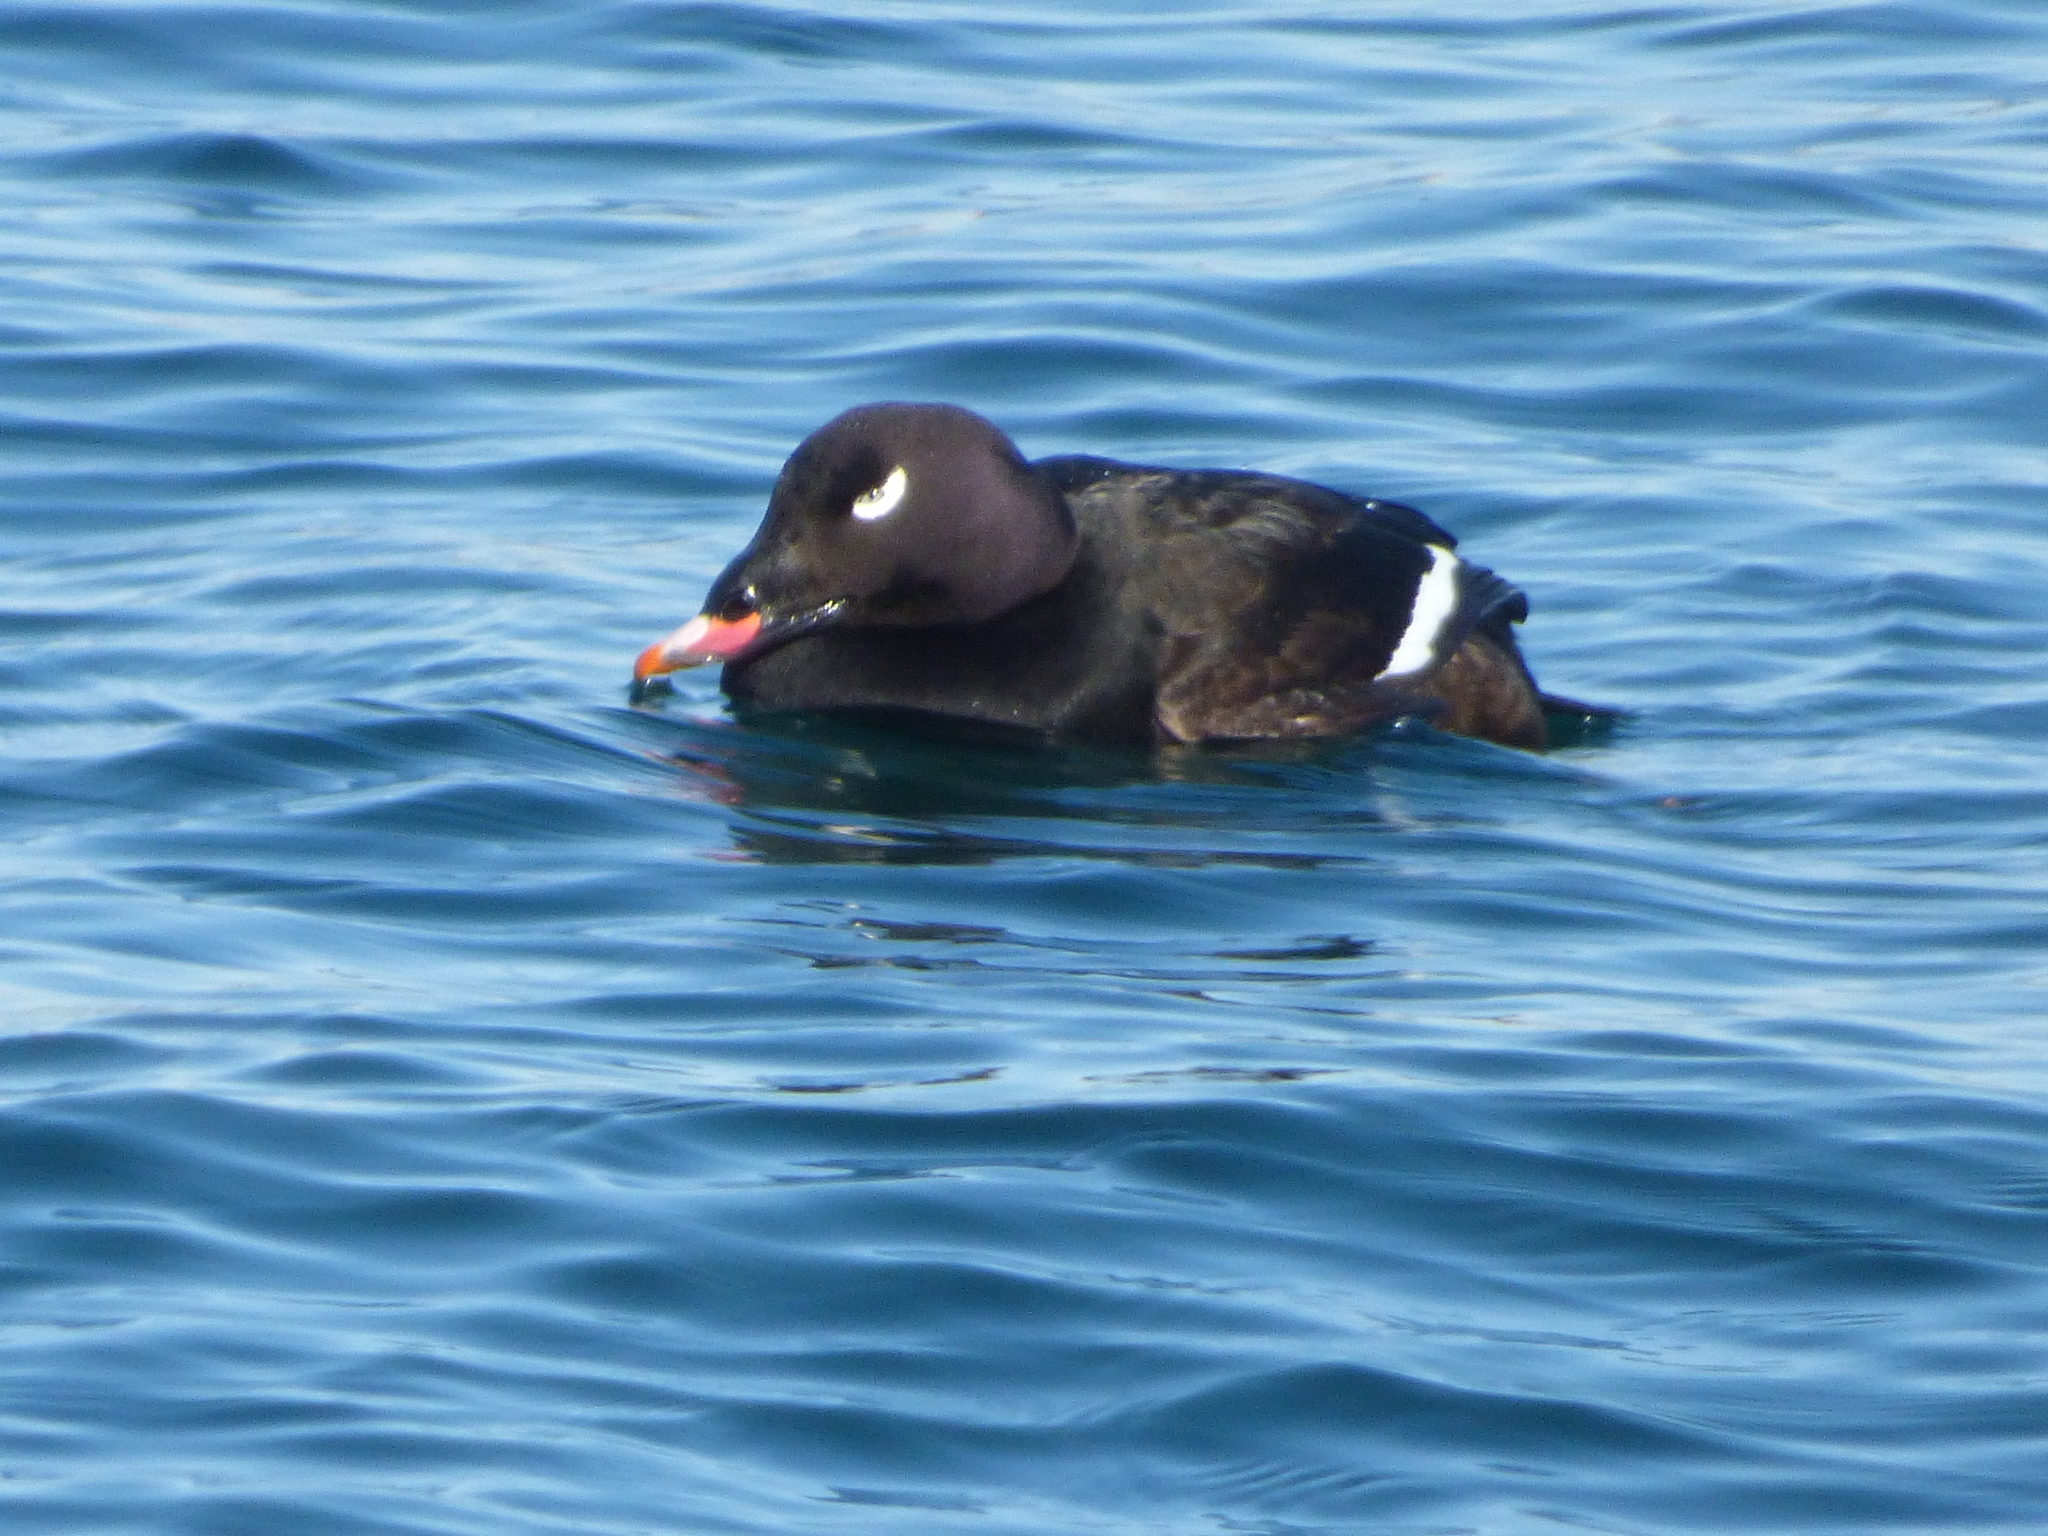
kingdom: Animalia
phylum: Chordata
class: Aves
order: Anseriformes
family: Anatidae
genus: Melanitta
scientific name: Melanitta deglandi
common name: White-winged scoter
